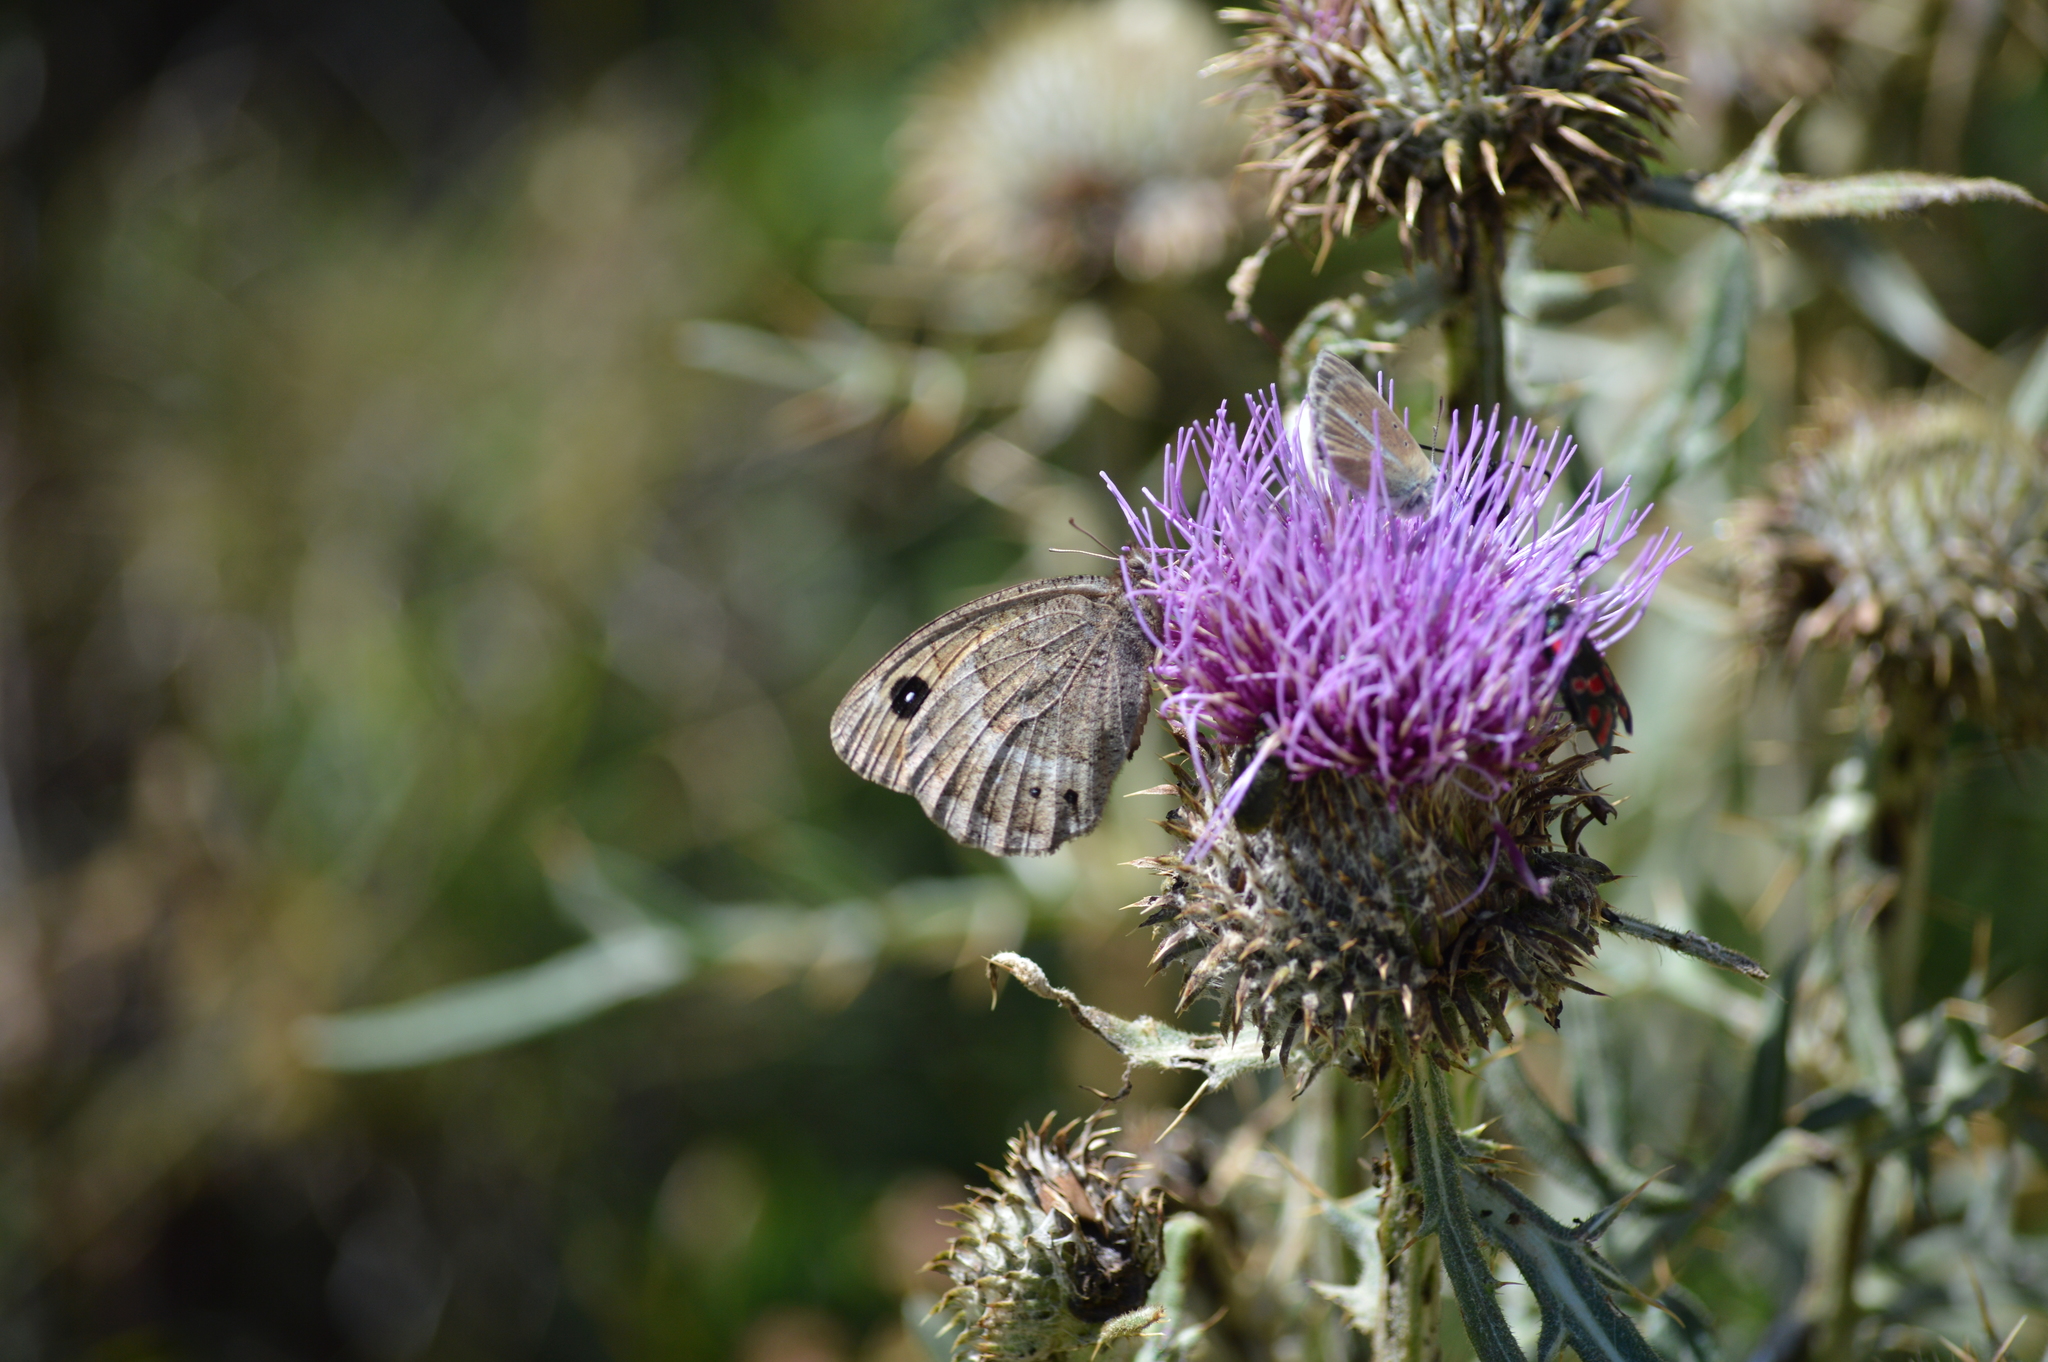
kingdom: Animalia
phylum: Arthropoda
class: Insecta
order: Lepidoptera
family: Nymphalidae
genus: Satyrus
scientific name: Satyrus ferula
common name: Great sooty satyr
